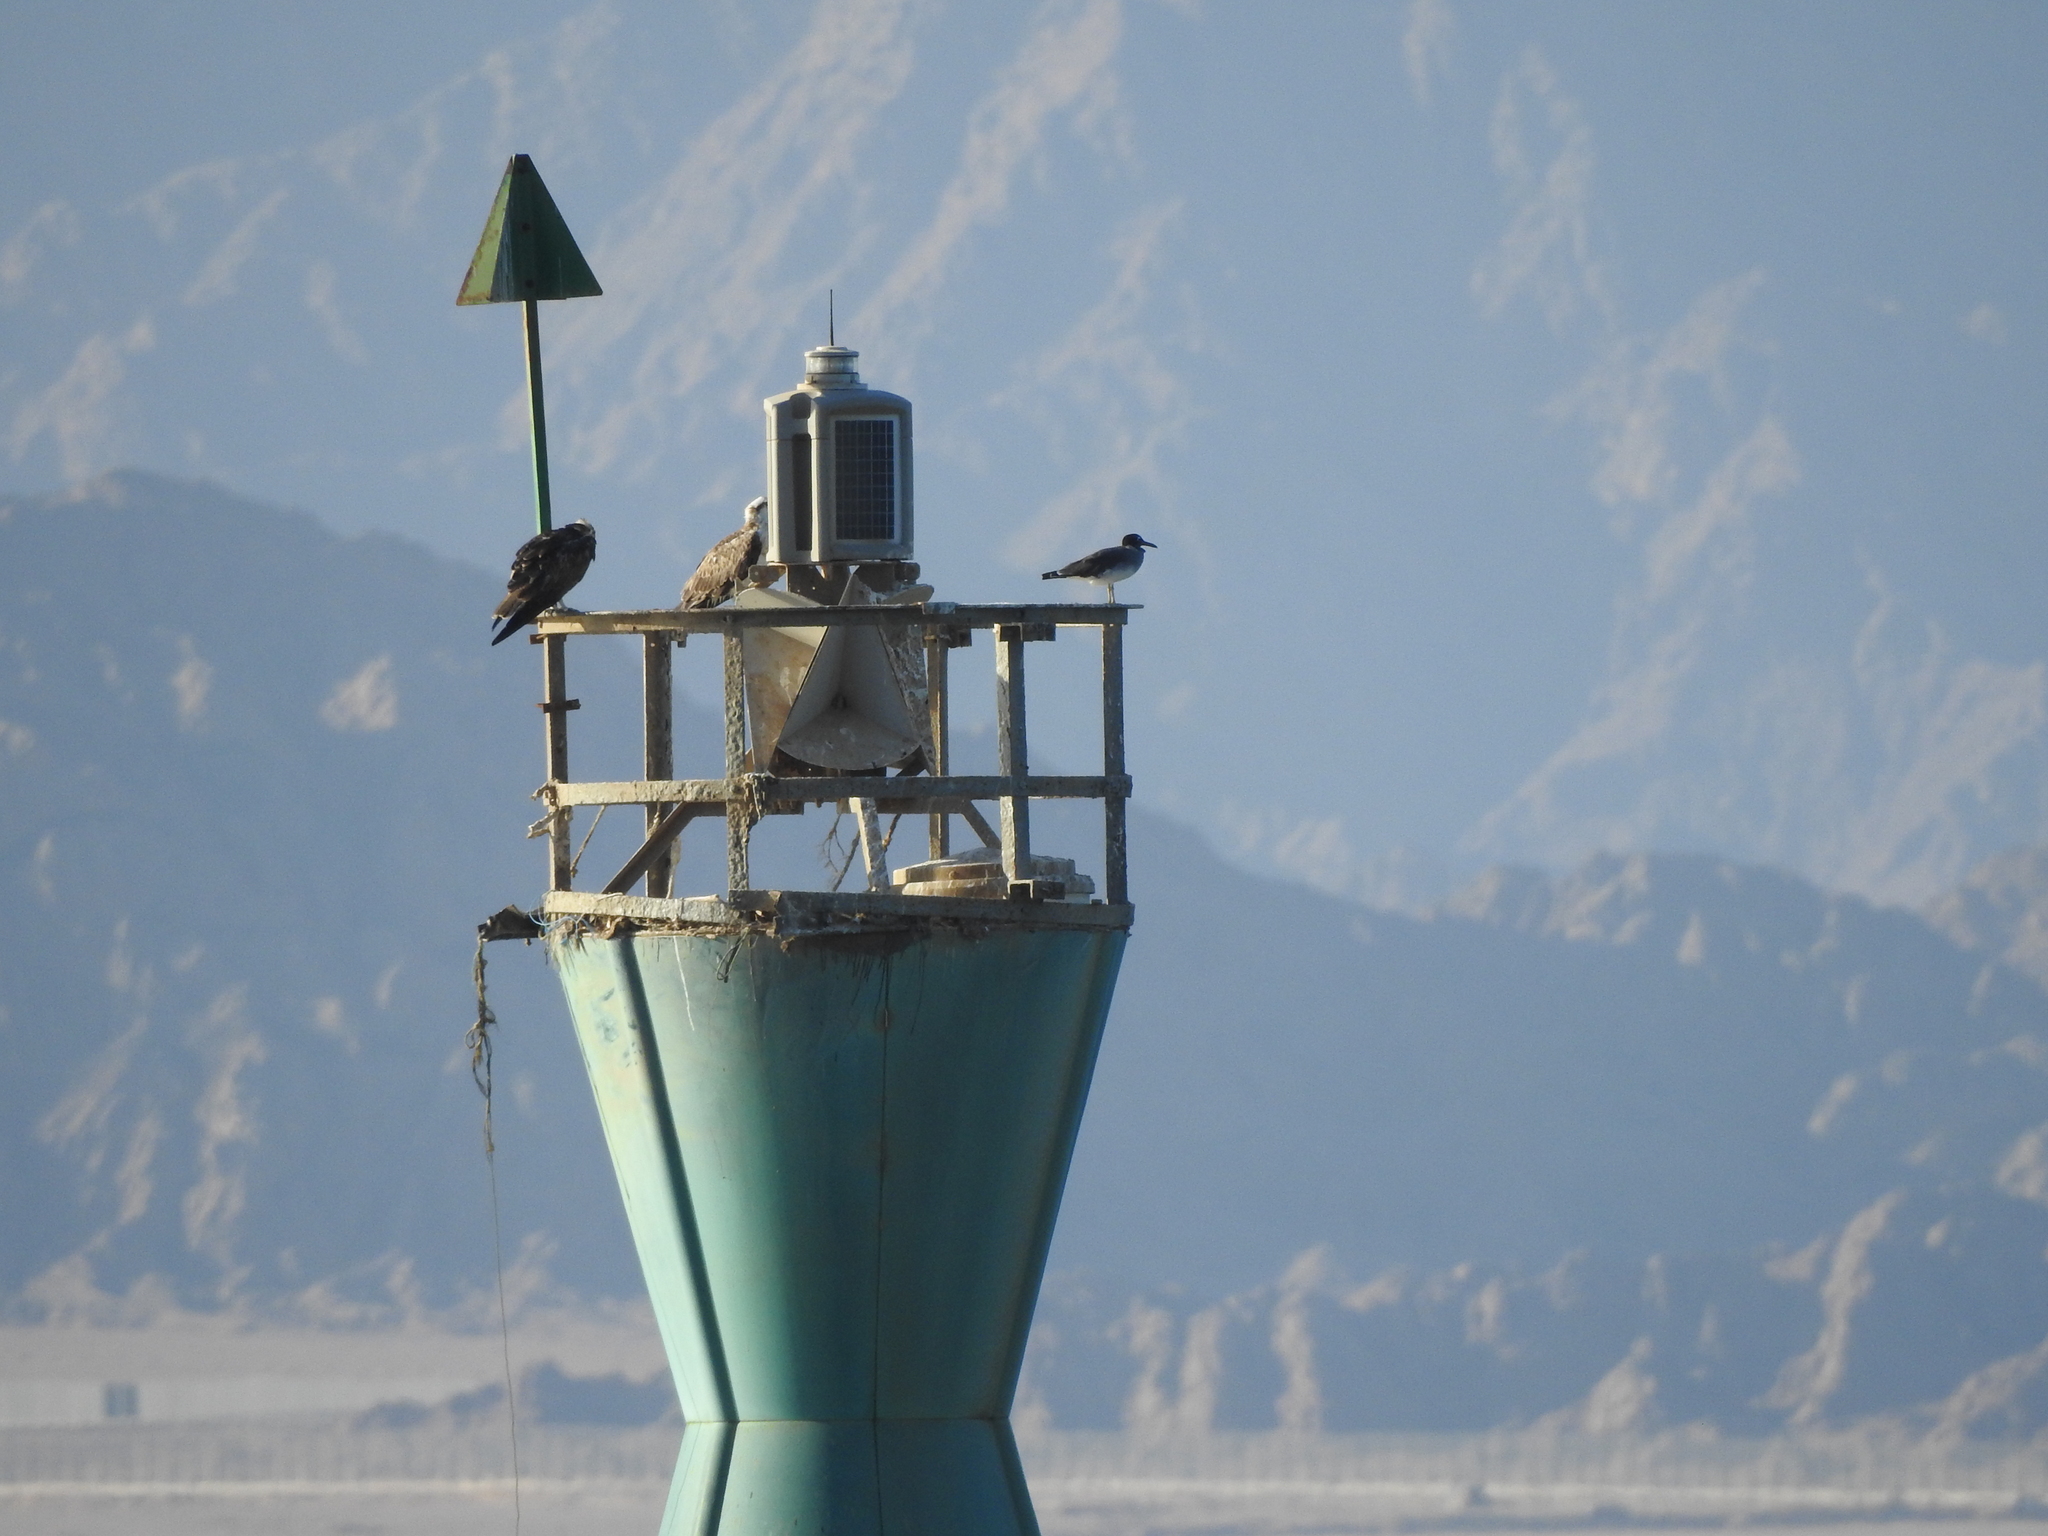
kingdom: Animalia
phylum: Chordata
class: Aves
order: Charadriiformes
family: Laridae
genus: Ichthyaetus
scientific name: Ichthyaetus leucophthalmus
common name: White-eyed gull
